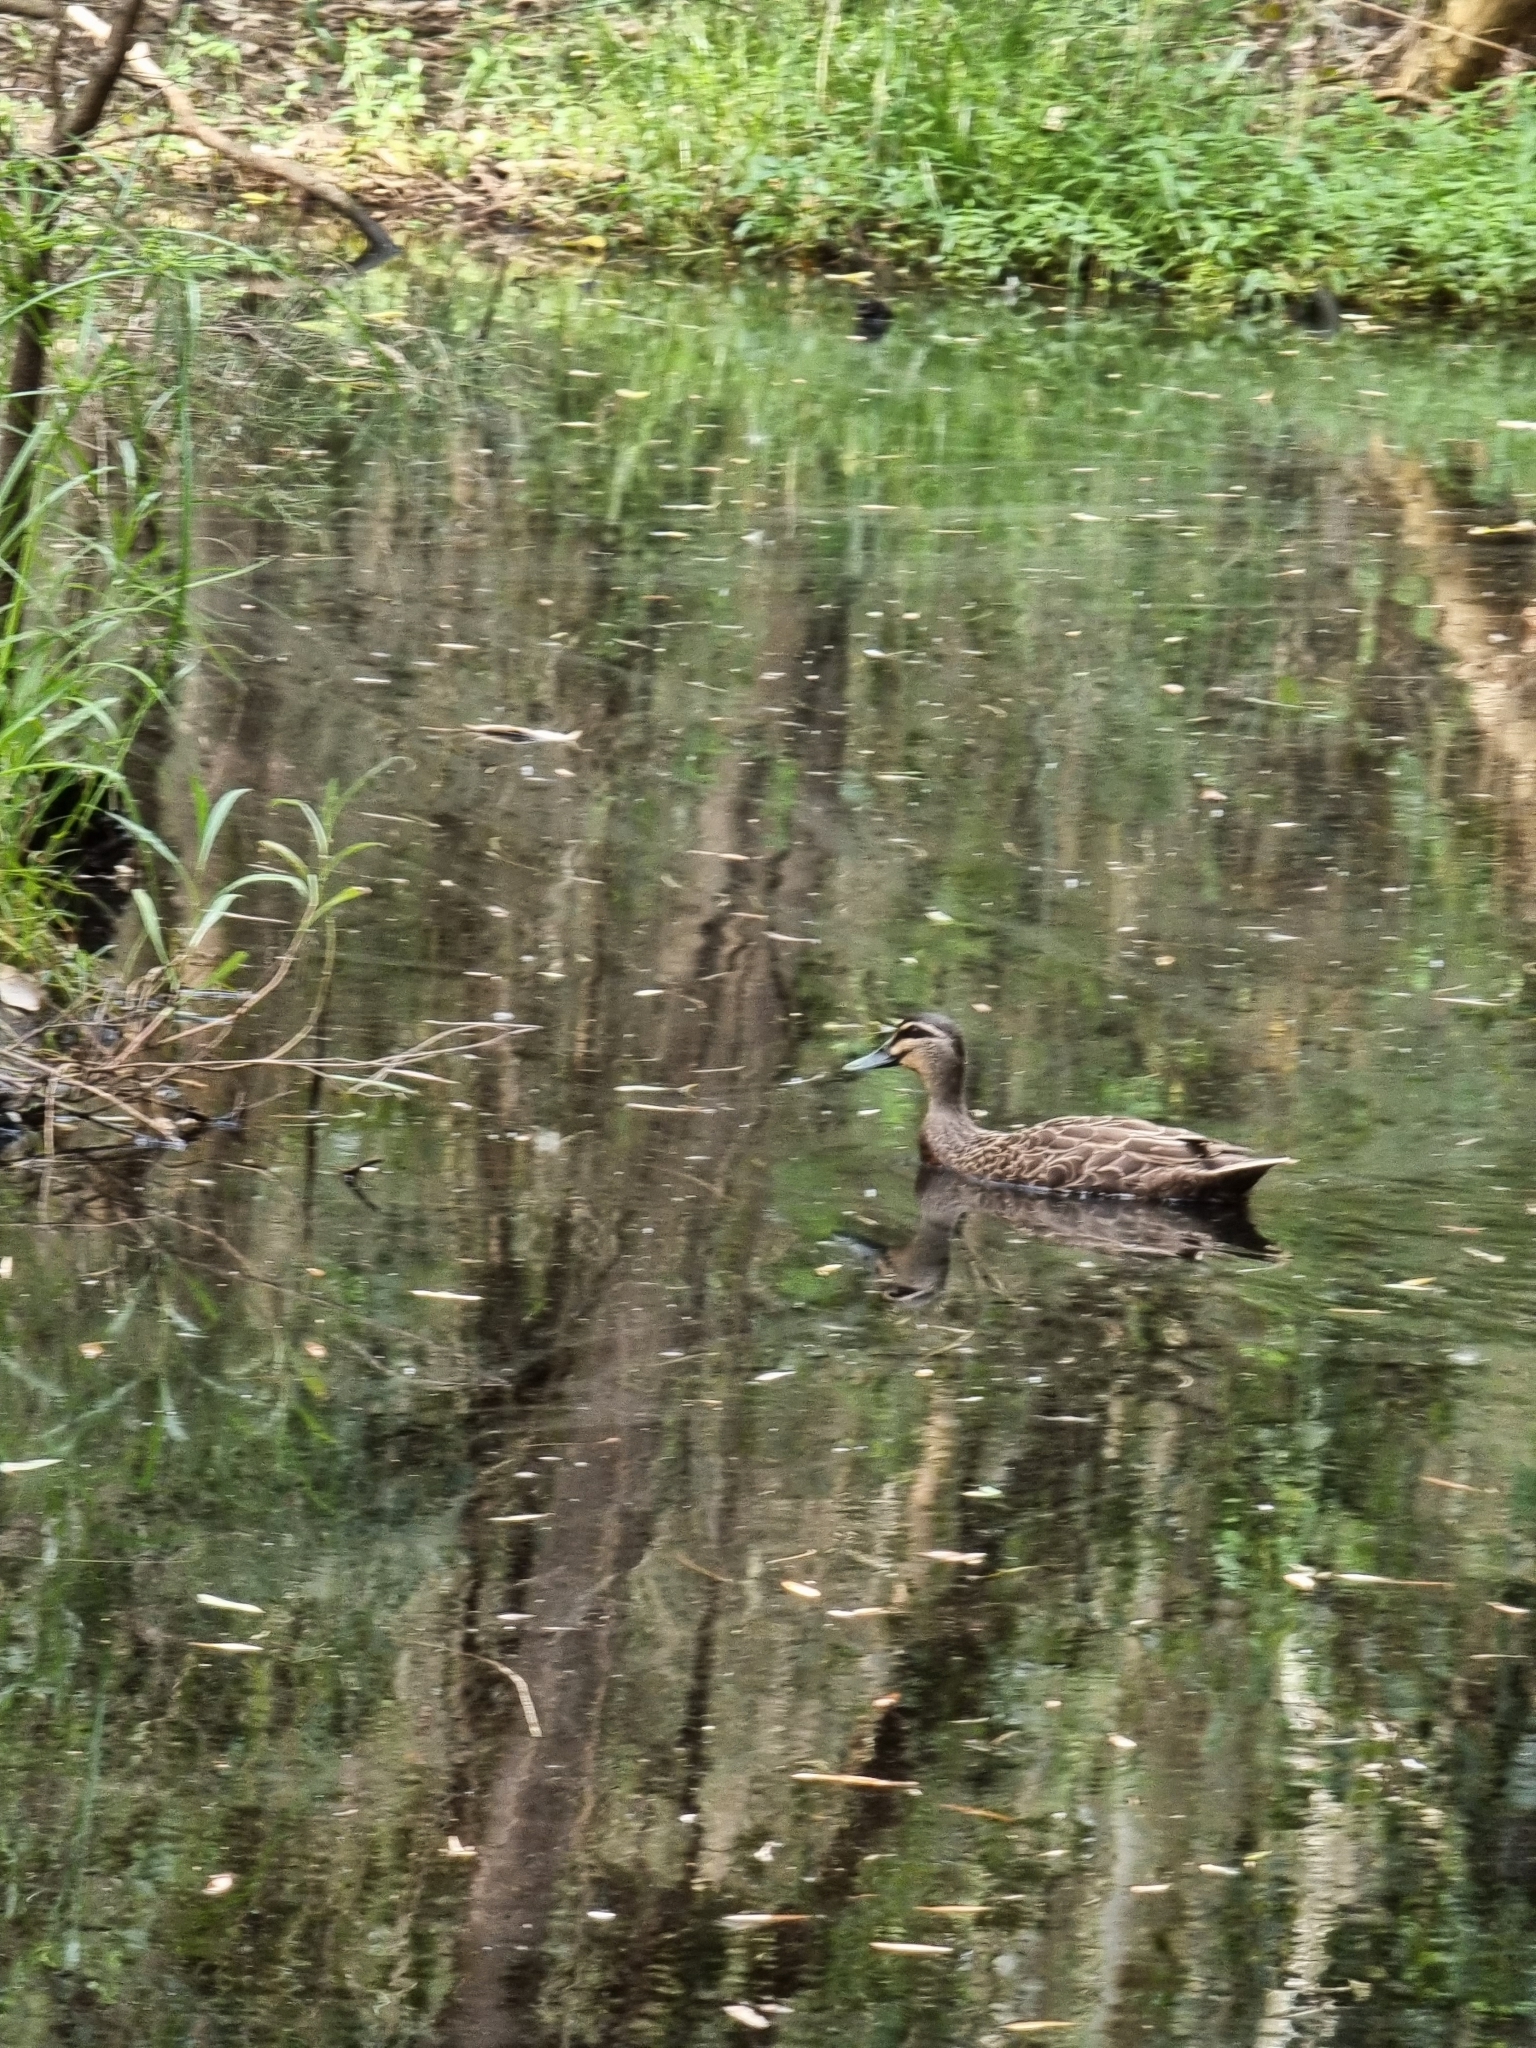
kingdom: Animalia
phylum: Chordata
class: Aves
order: Anseriformes
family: Anatidae
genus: Anas
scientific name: Anas superciliosa
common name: Pacific black duck
